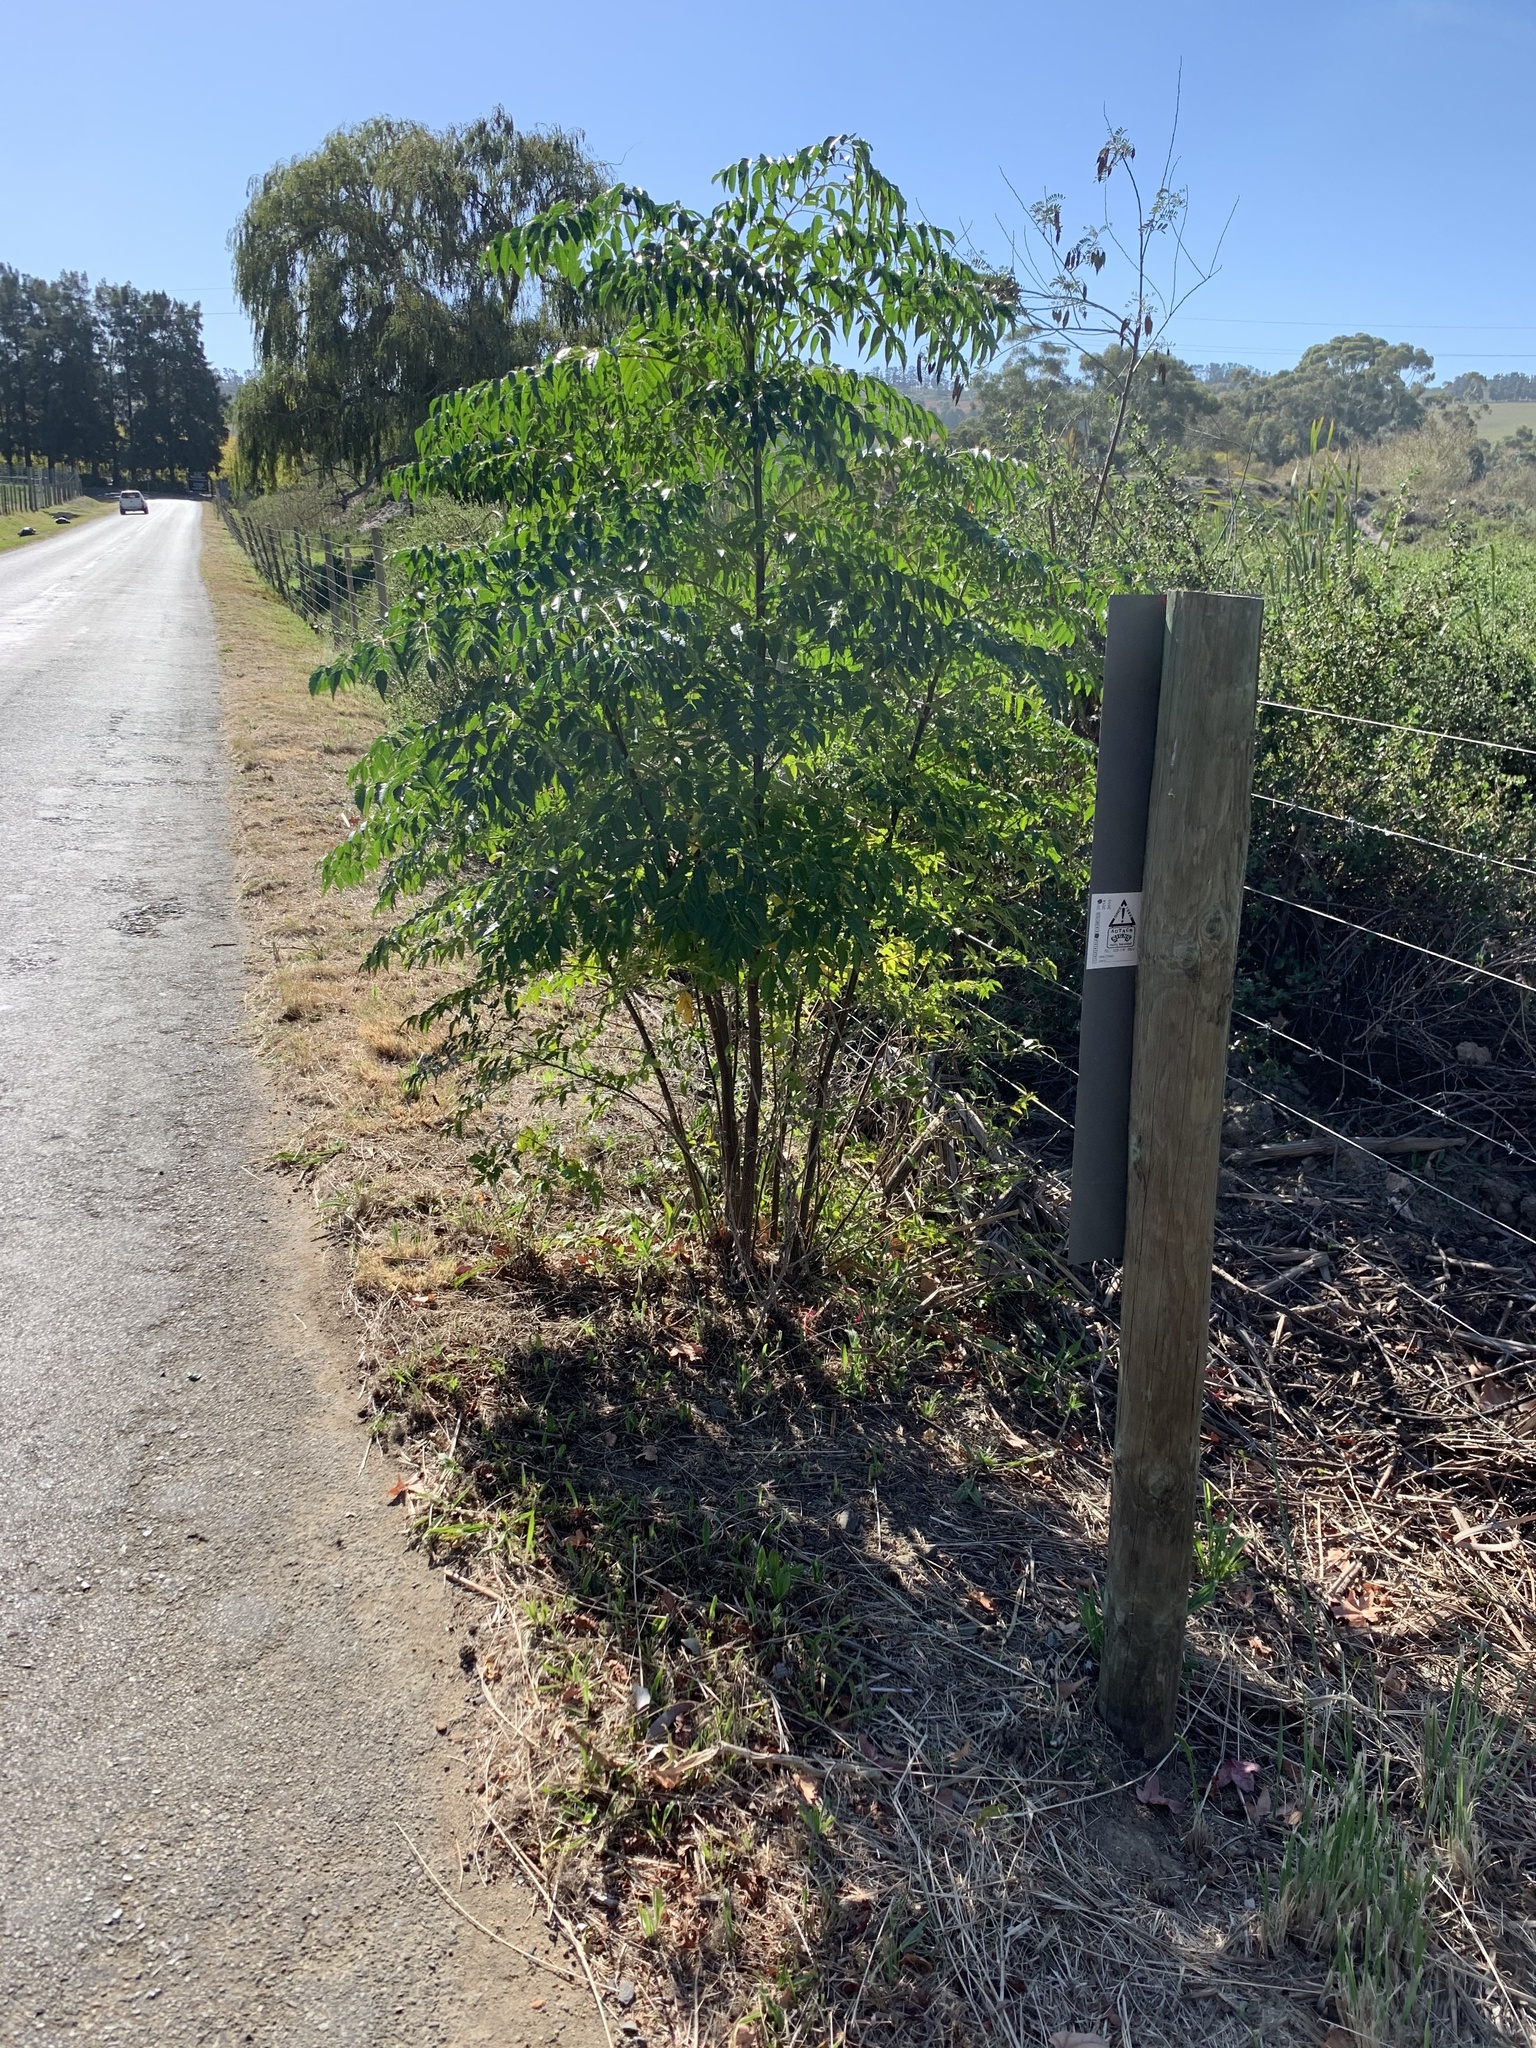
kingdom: Plantae
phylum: Tracheophyta
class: Magnoliopsida
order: Sapindales
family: Meliaceae
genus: Melia
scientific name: Melia azedarach
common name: Chinaberrytree
